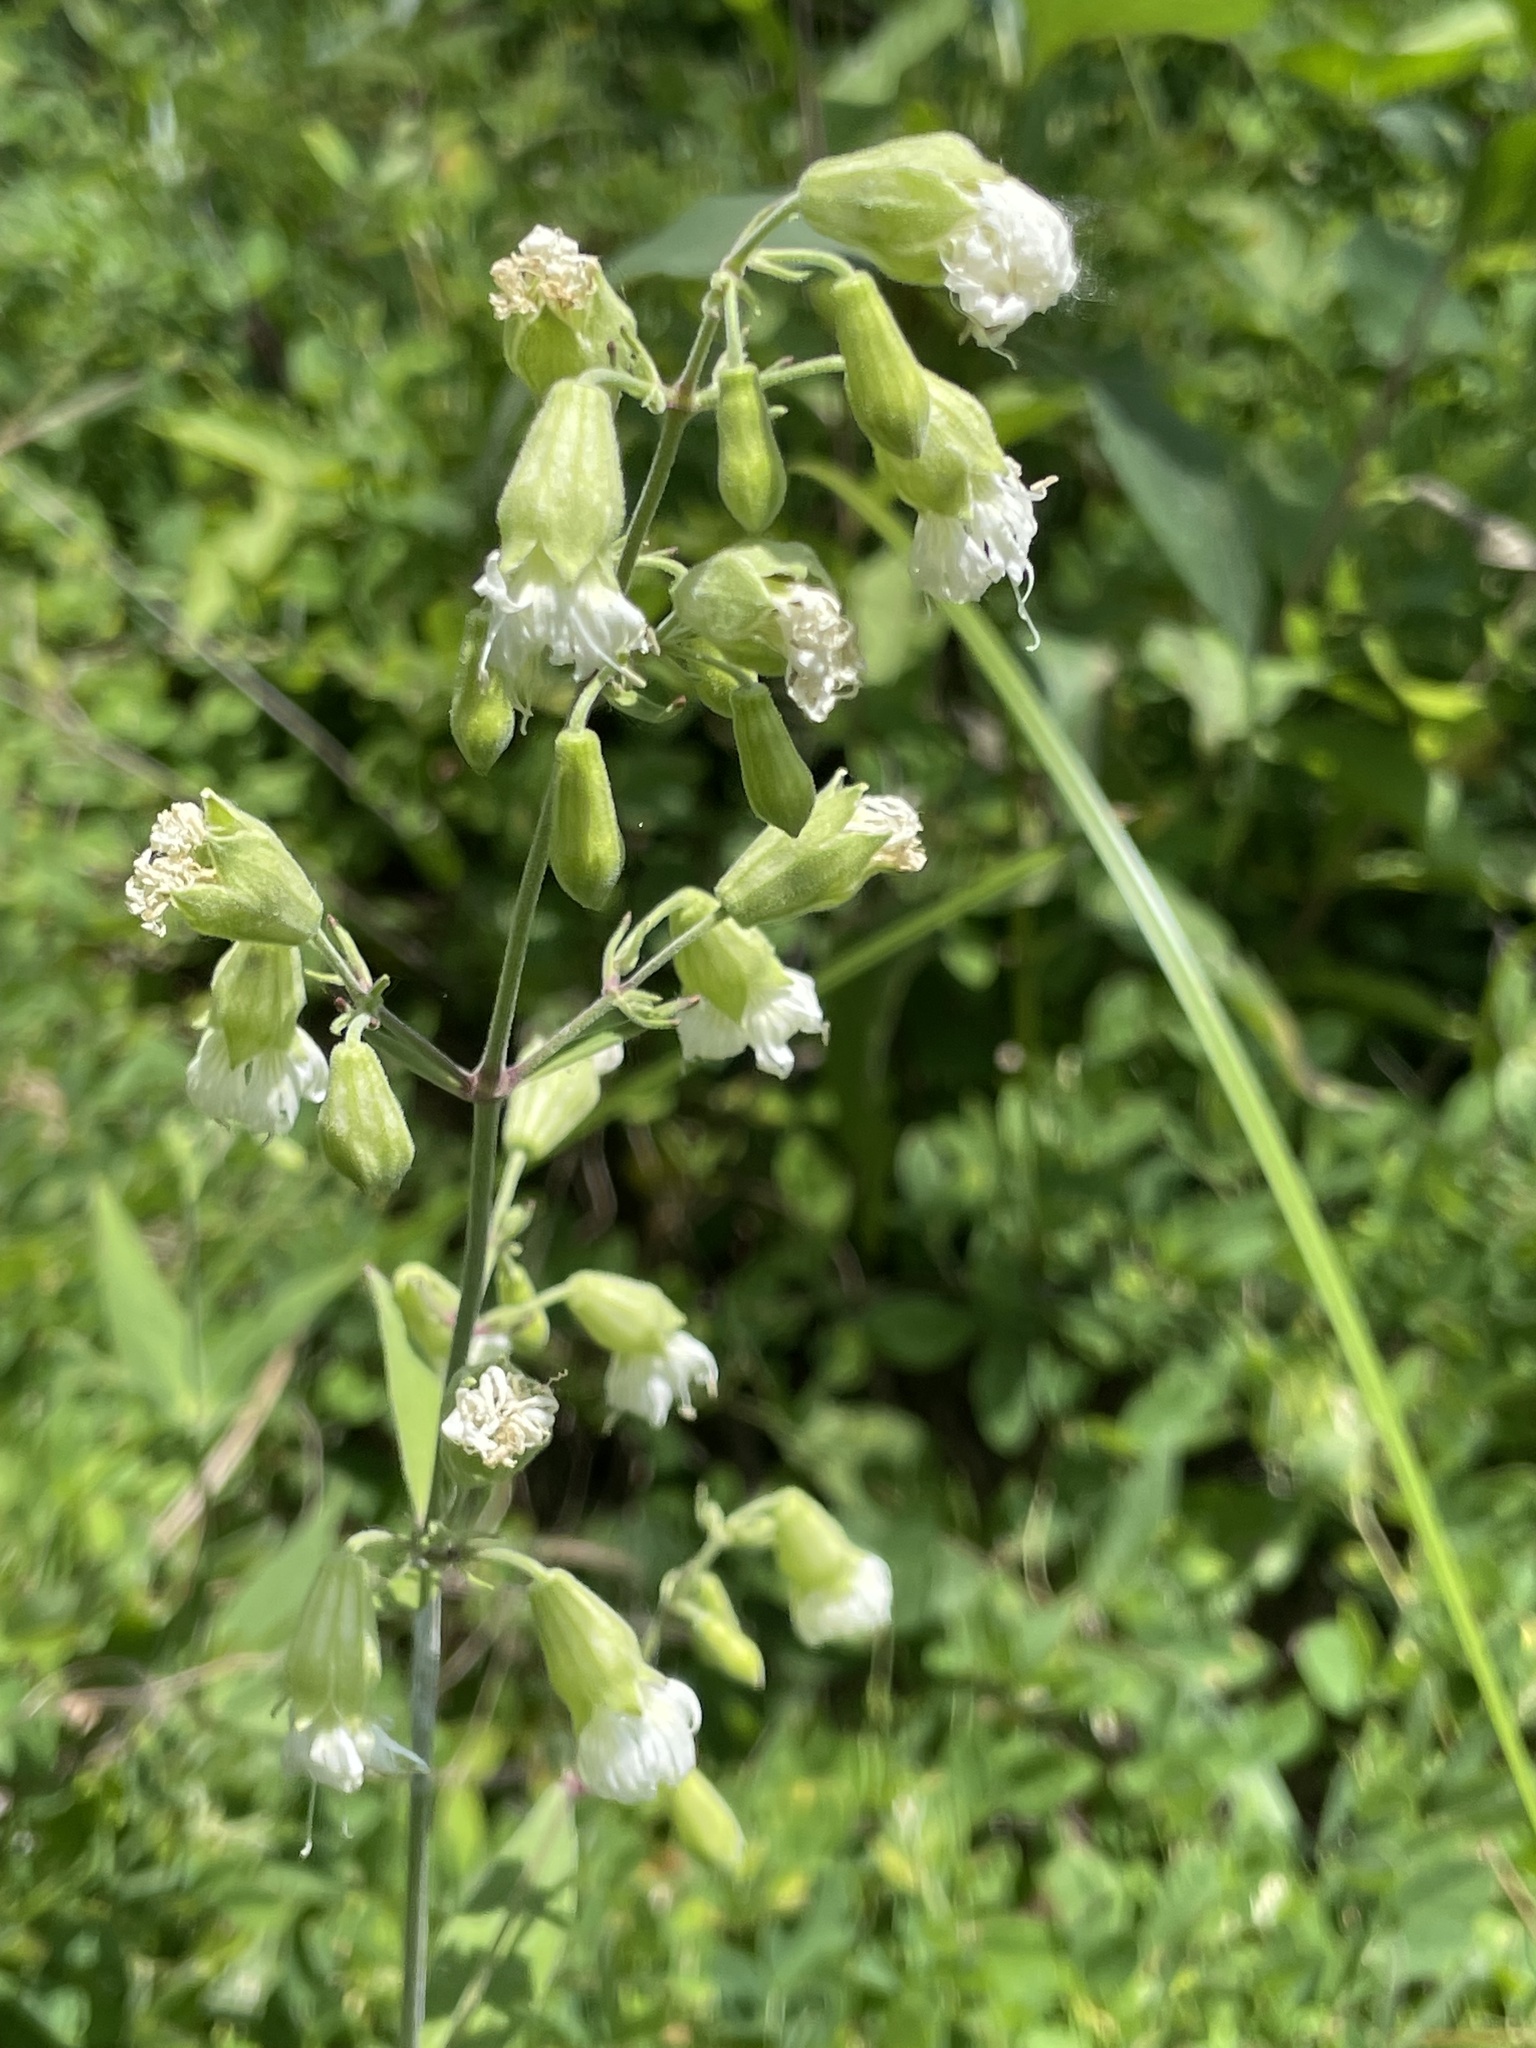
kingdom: Plantae
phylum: Tracheophyta
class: Magnoliopsida
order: Caryophyllales
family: Caryophyllaceae
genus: Silene
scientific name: Silene stellata
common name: Starry campion
